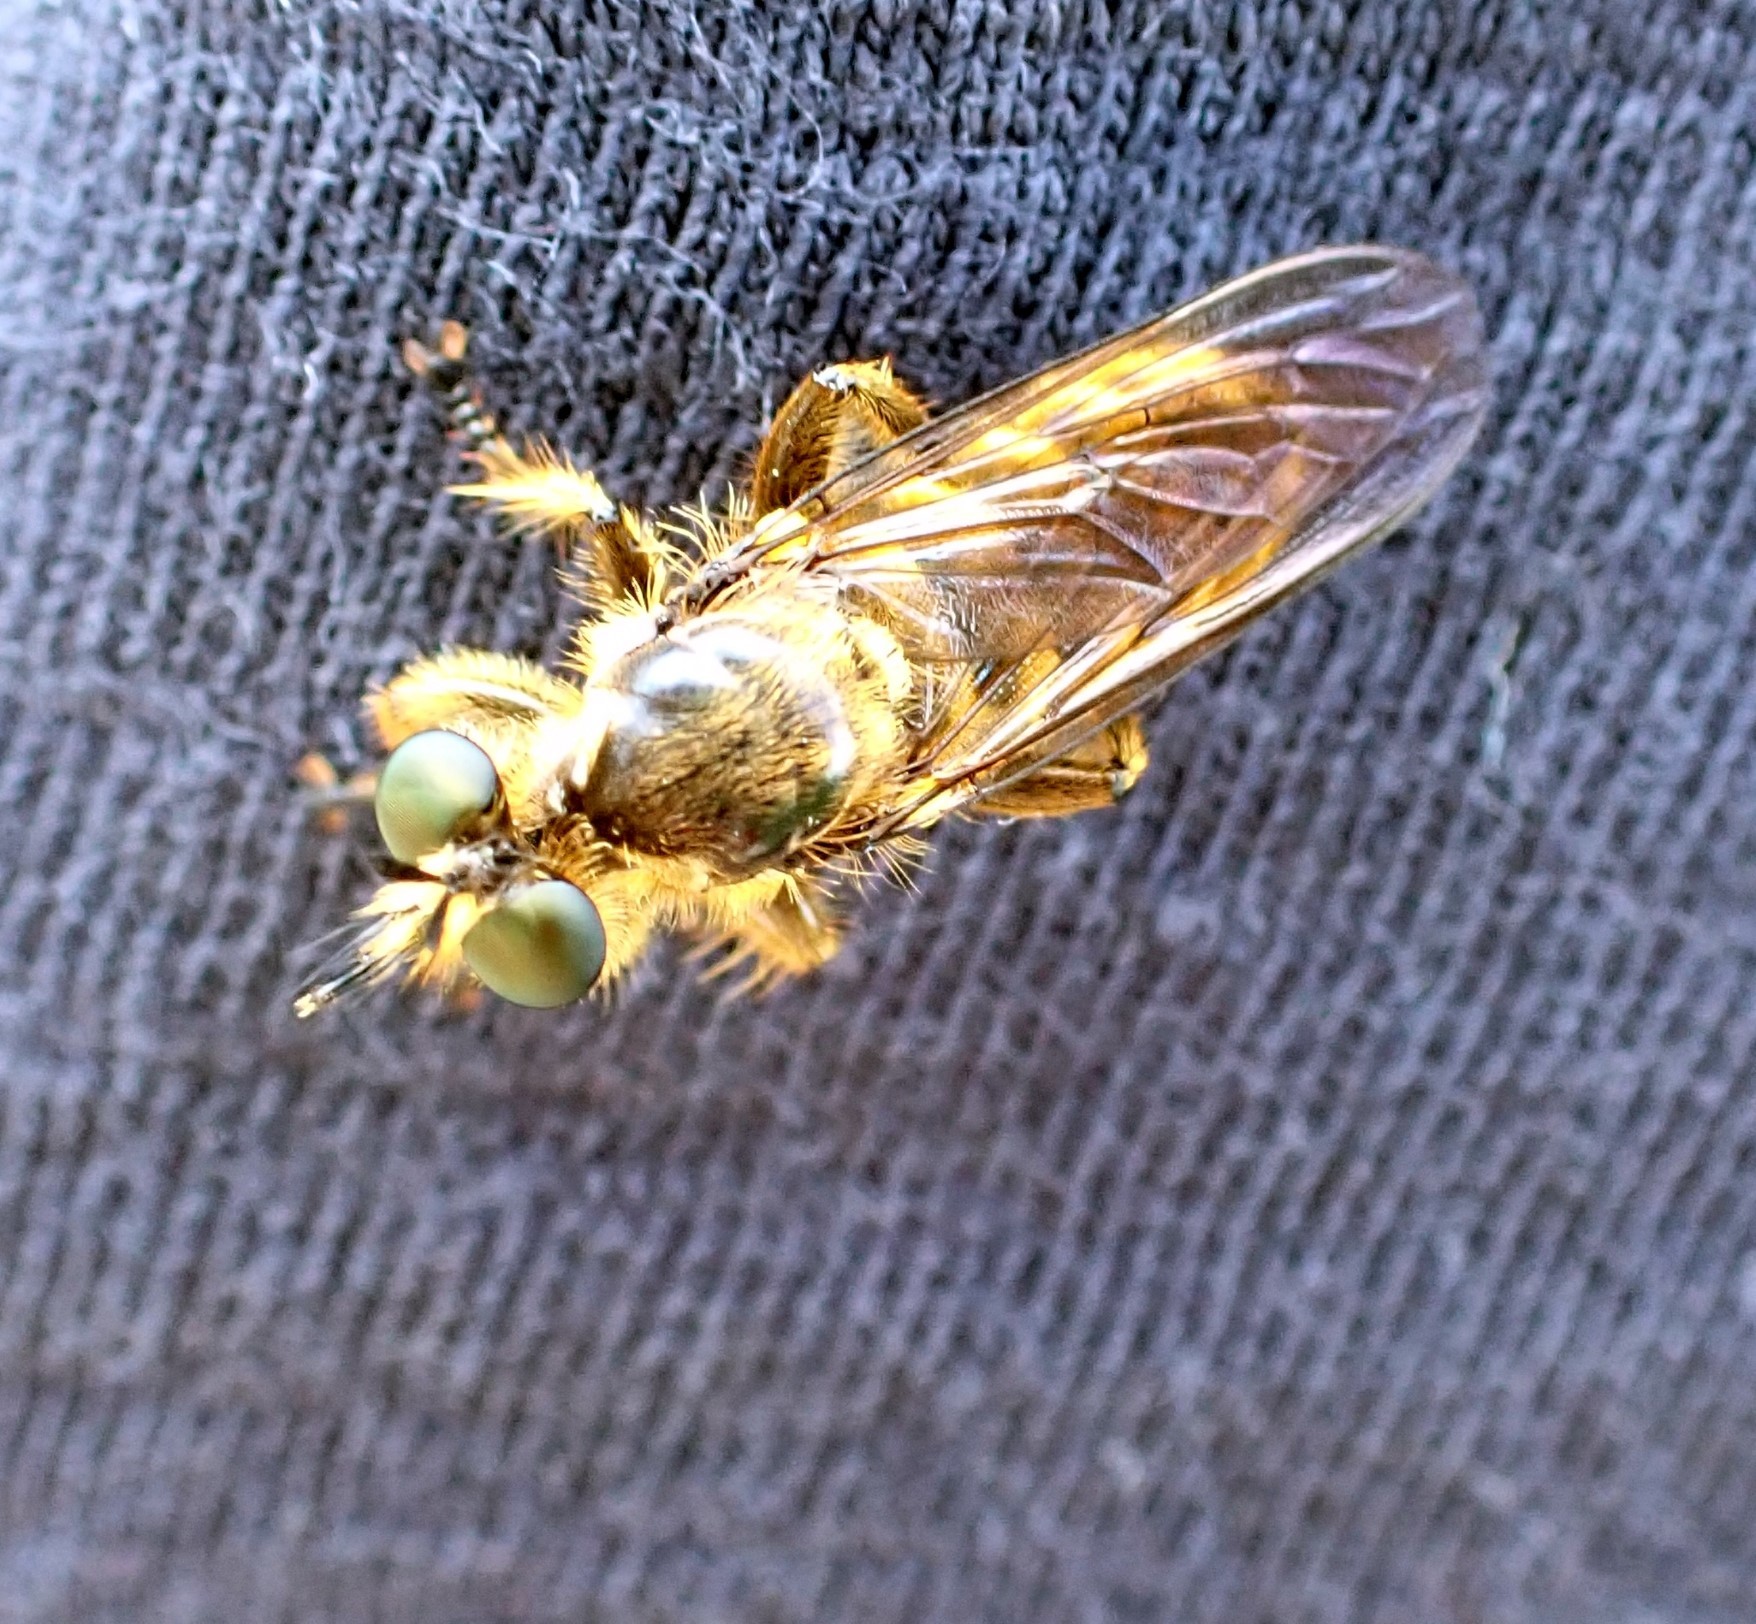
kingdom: Animalia
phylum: Arthropoda
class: Insecta
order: Diptera
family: Asilidae
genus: Lamyra
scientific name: Lamyra fimbriata
